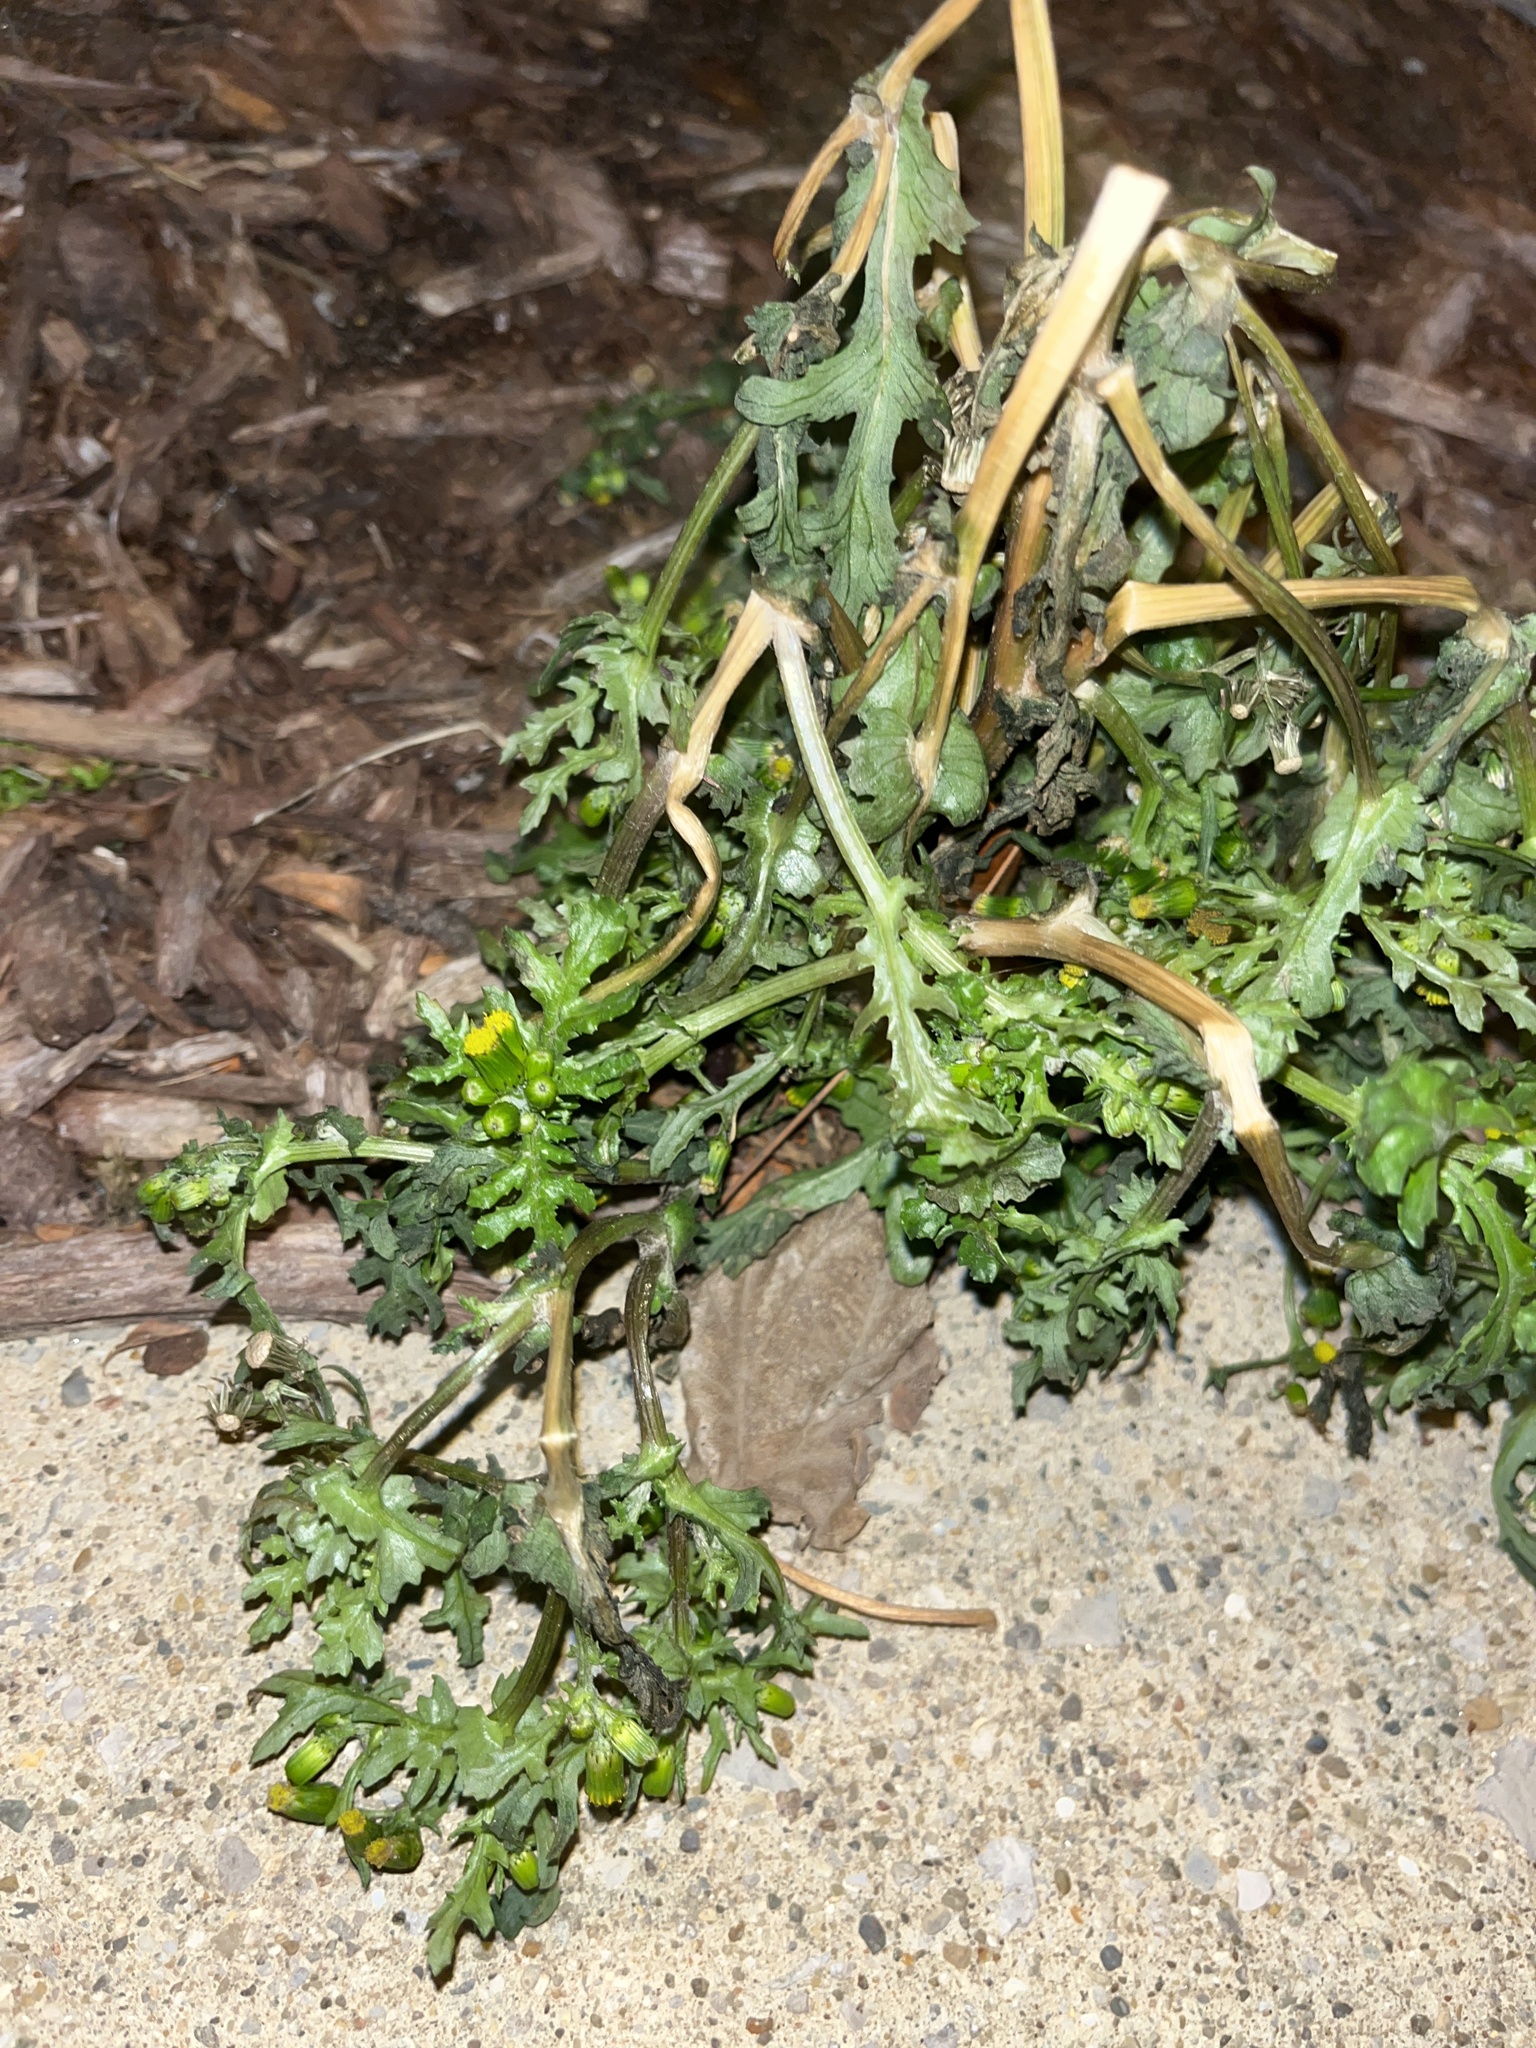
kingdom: Plantae
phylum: Tracheophyta
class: Magnoliopsida
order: Asterales
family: Asteraceae
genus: Senecio
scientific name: Senecio vulgaris
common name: Old-man-in-the-spring
